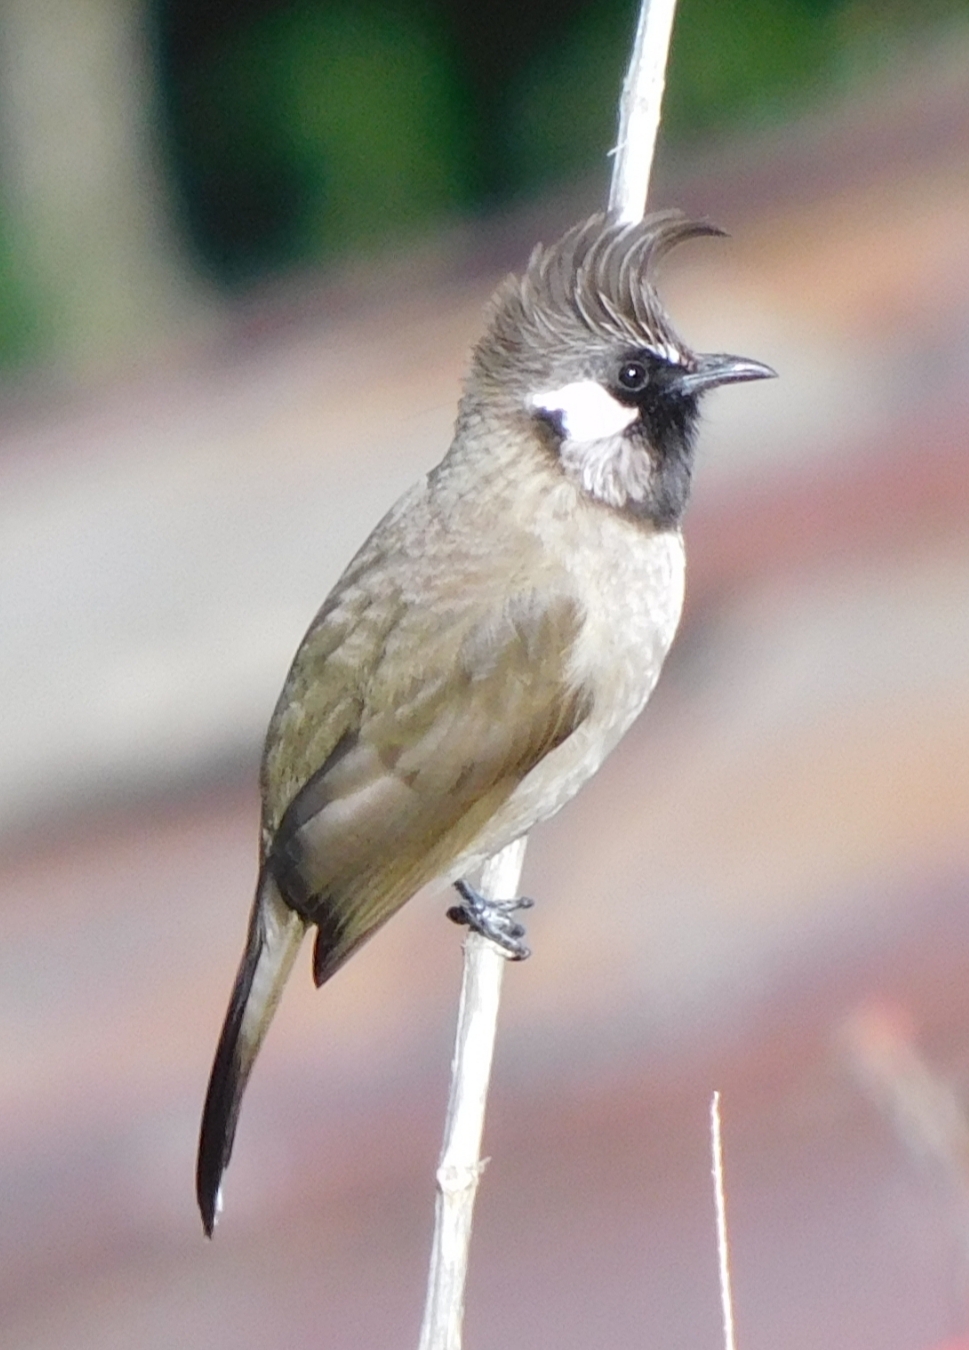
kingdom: Animalia
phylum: Chordata
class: Aves
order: Passeriformes
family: Pycnonotidae
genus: Pycnonotus
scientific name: Pycnonotus leucogenys
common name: Himalayan bulbul
